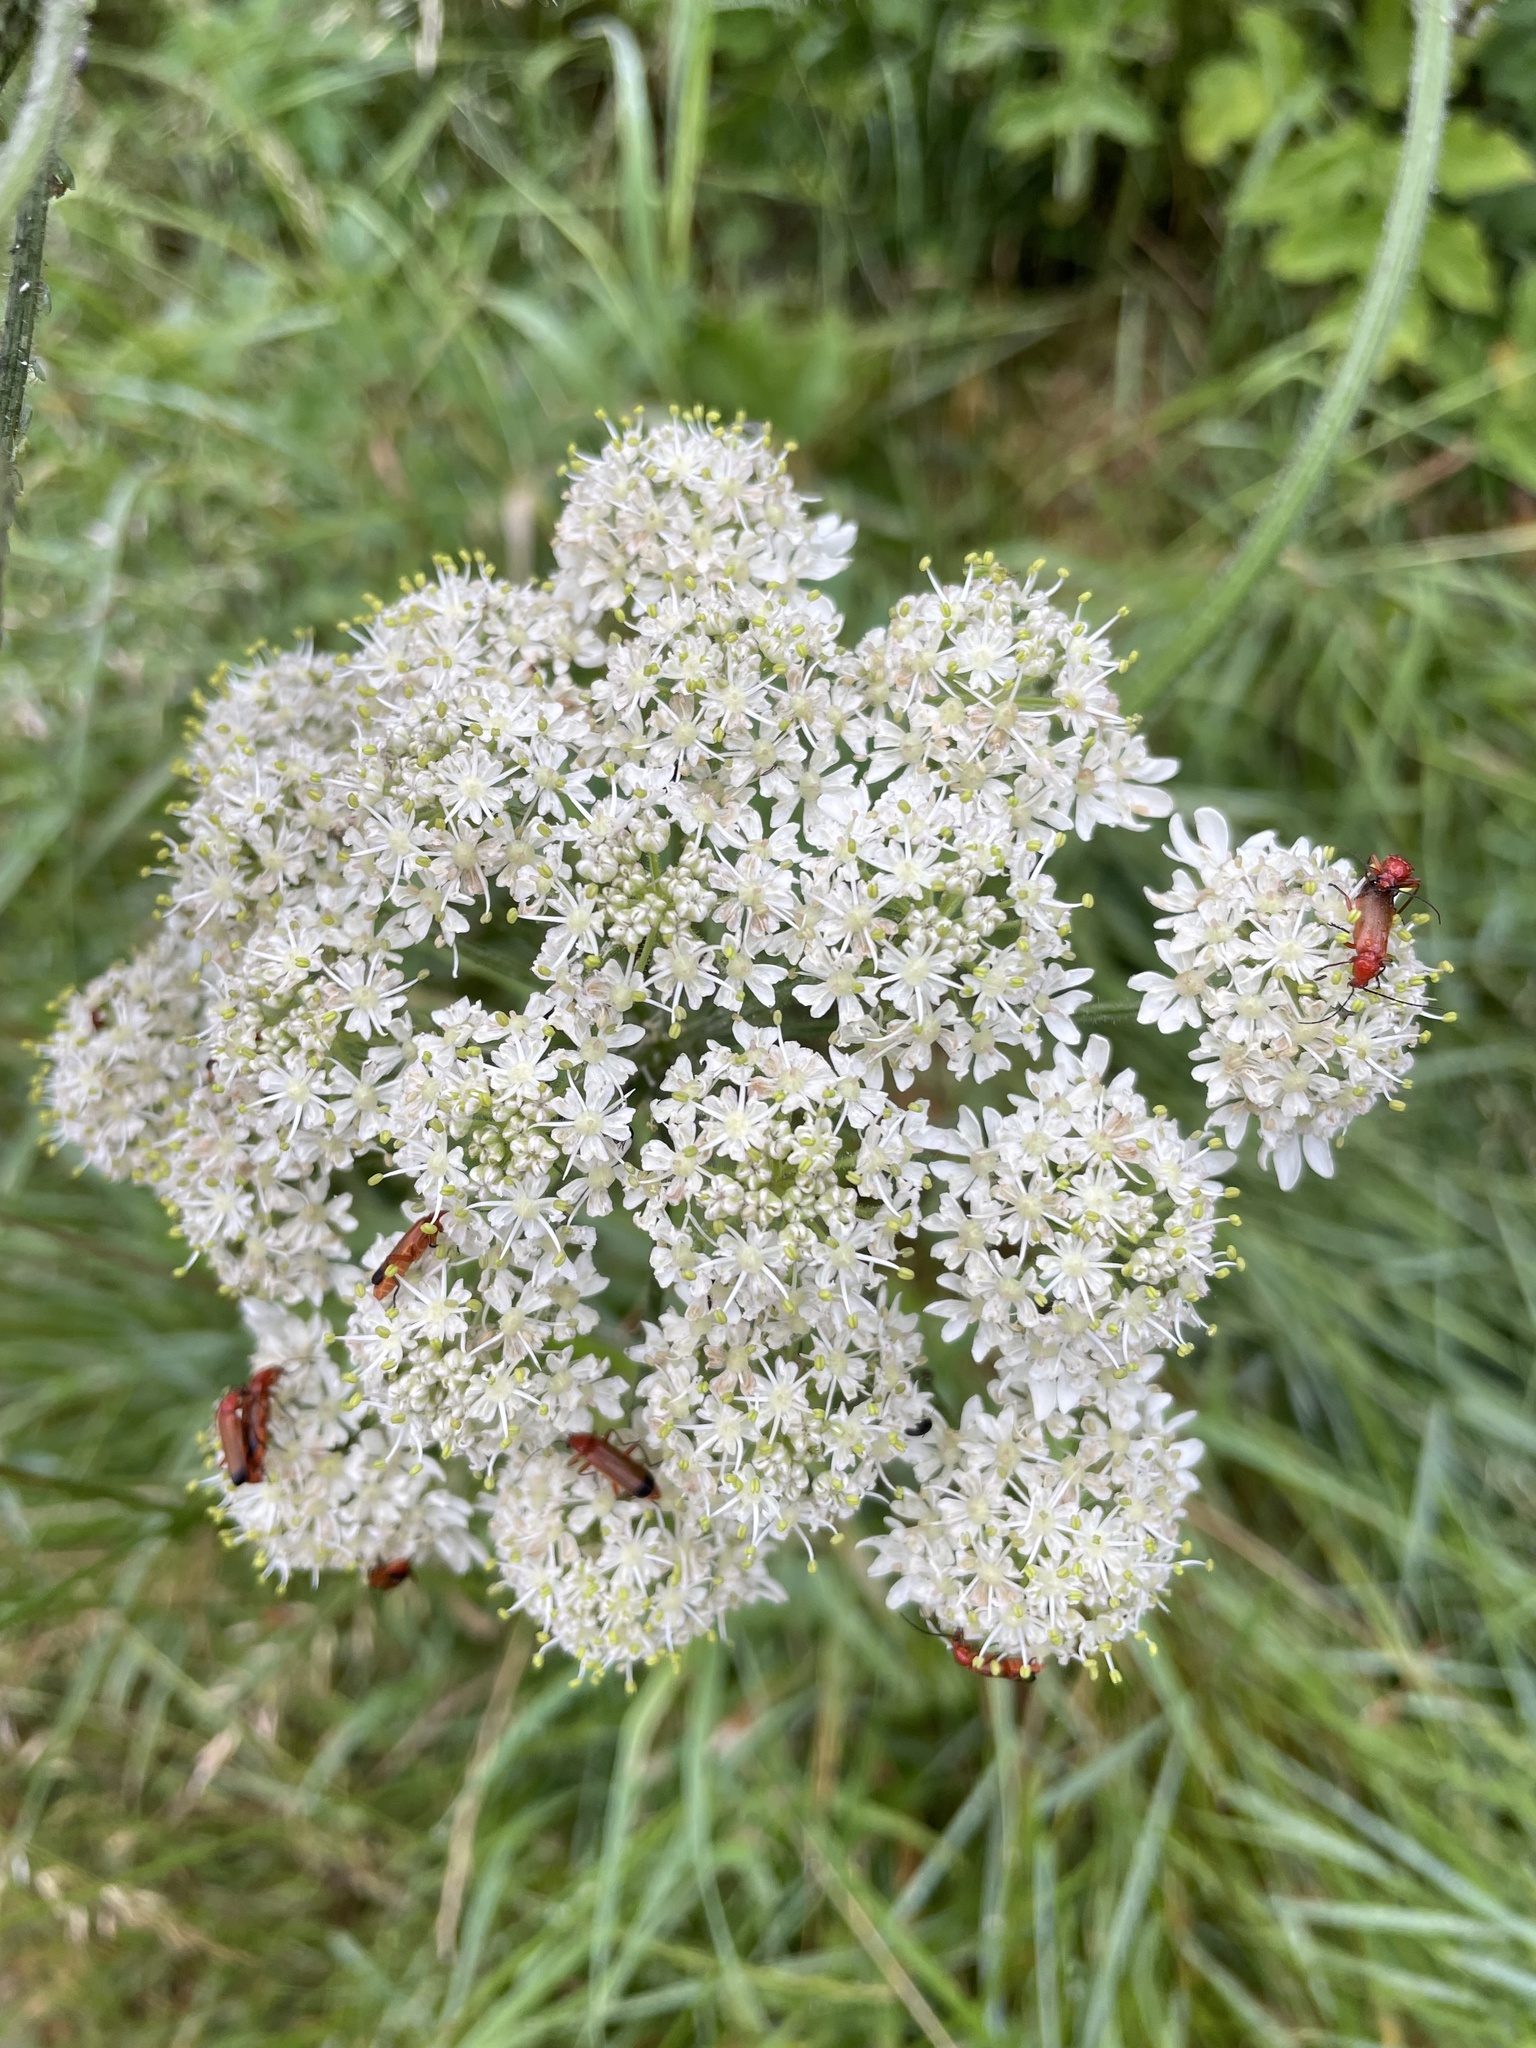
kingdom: Animalia
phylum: Arthropoda
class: Insecta
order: Coleoptera
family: Cantharidae
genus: Rhagonycha
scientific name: Rhagonycha fulva
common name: Common red soldier beetle
